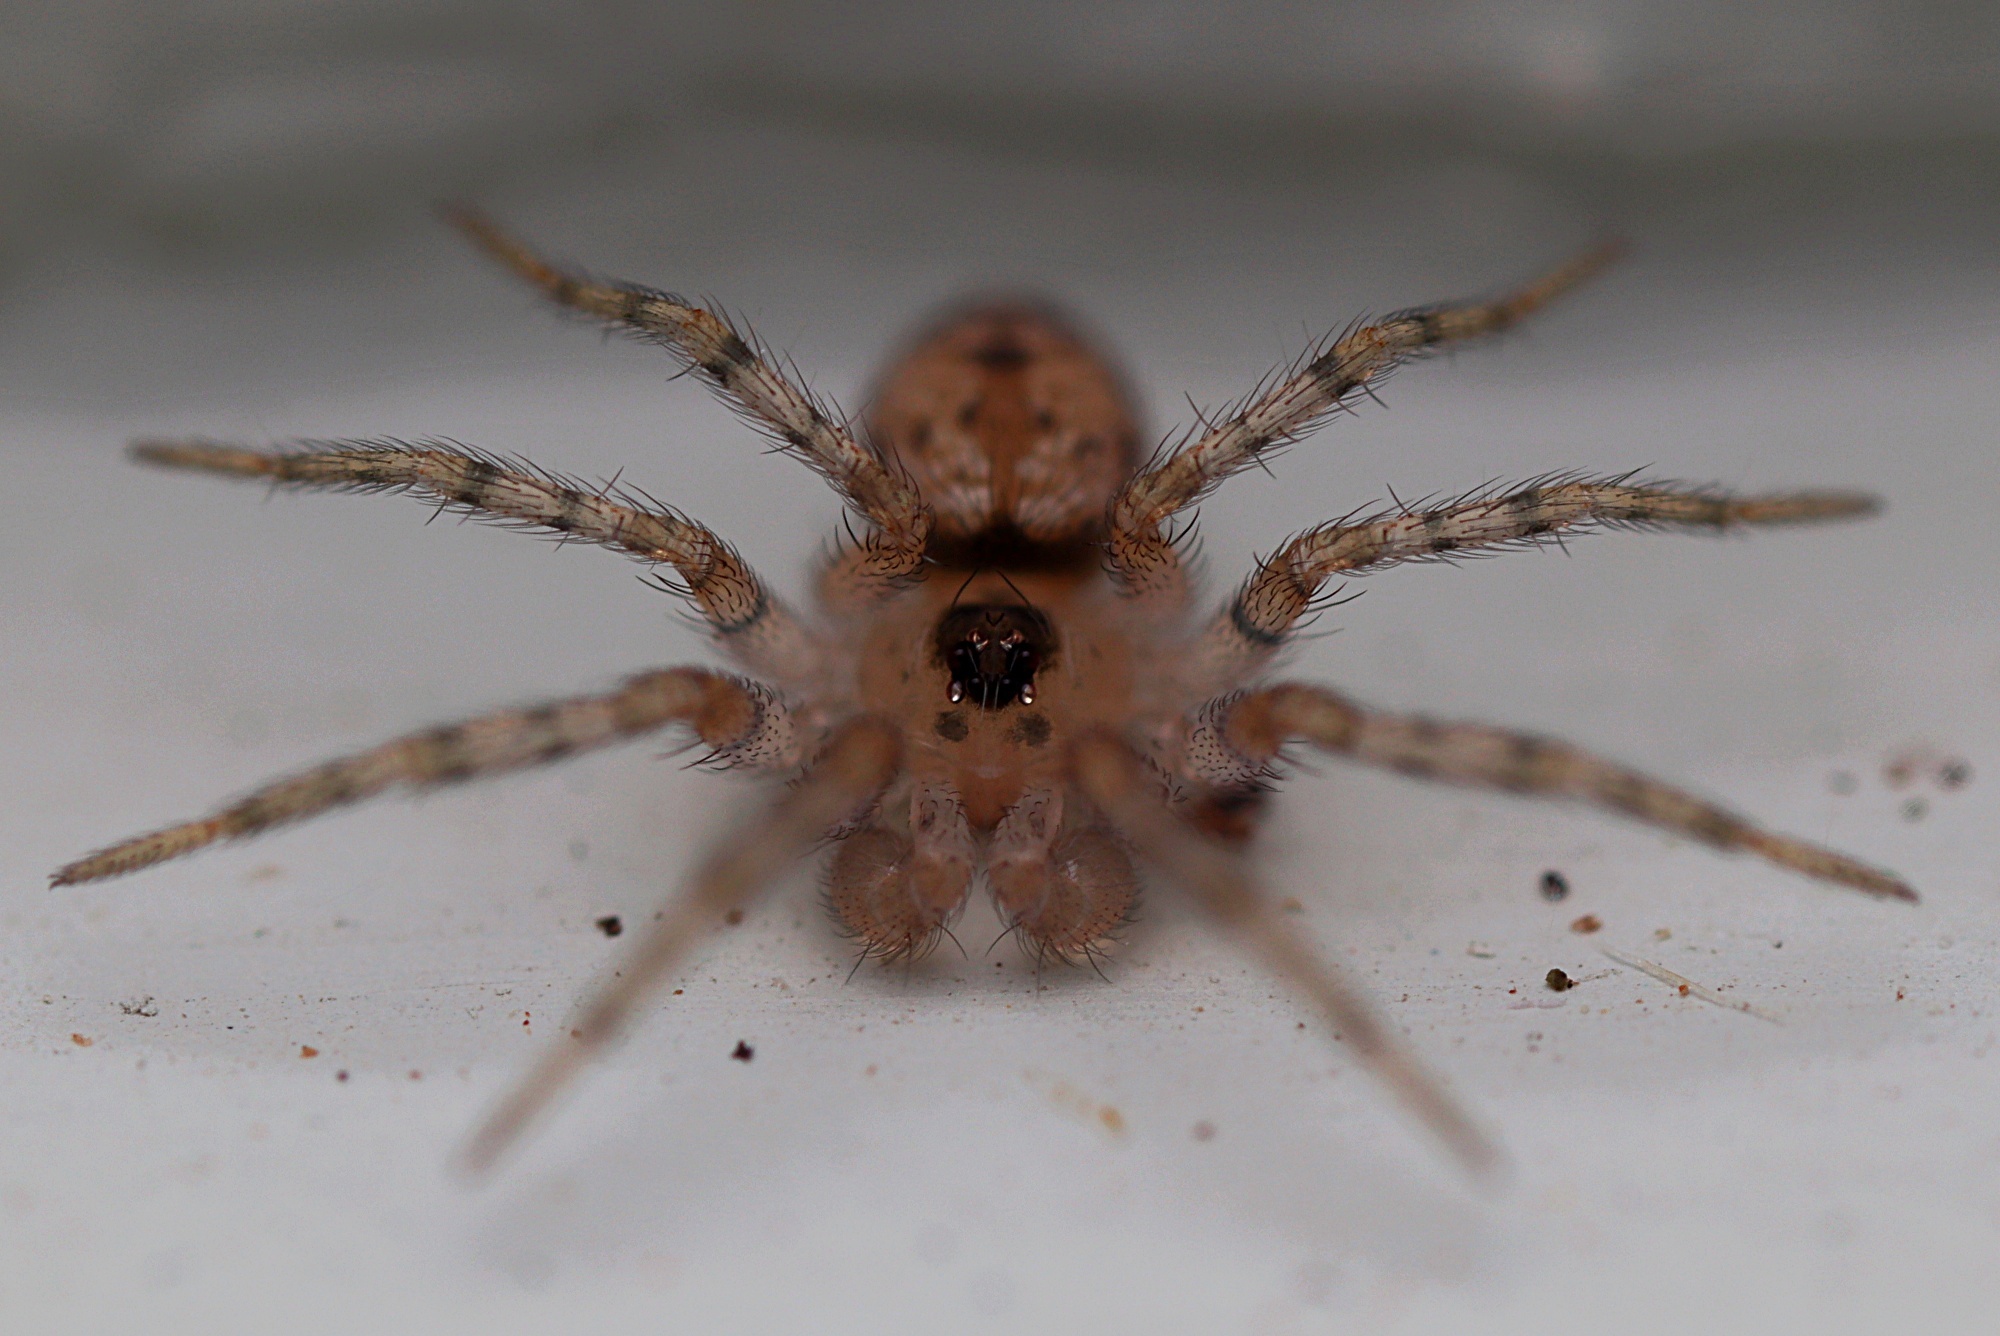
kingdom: Animalia
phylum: Arthropoda
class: Arachnida
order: Araneae
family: Oecobiidae
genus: Oecobius
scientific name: Oecobius navus
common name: Flatmesh weaver
